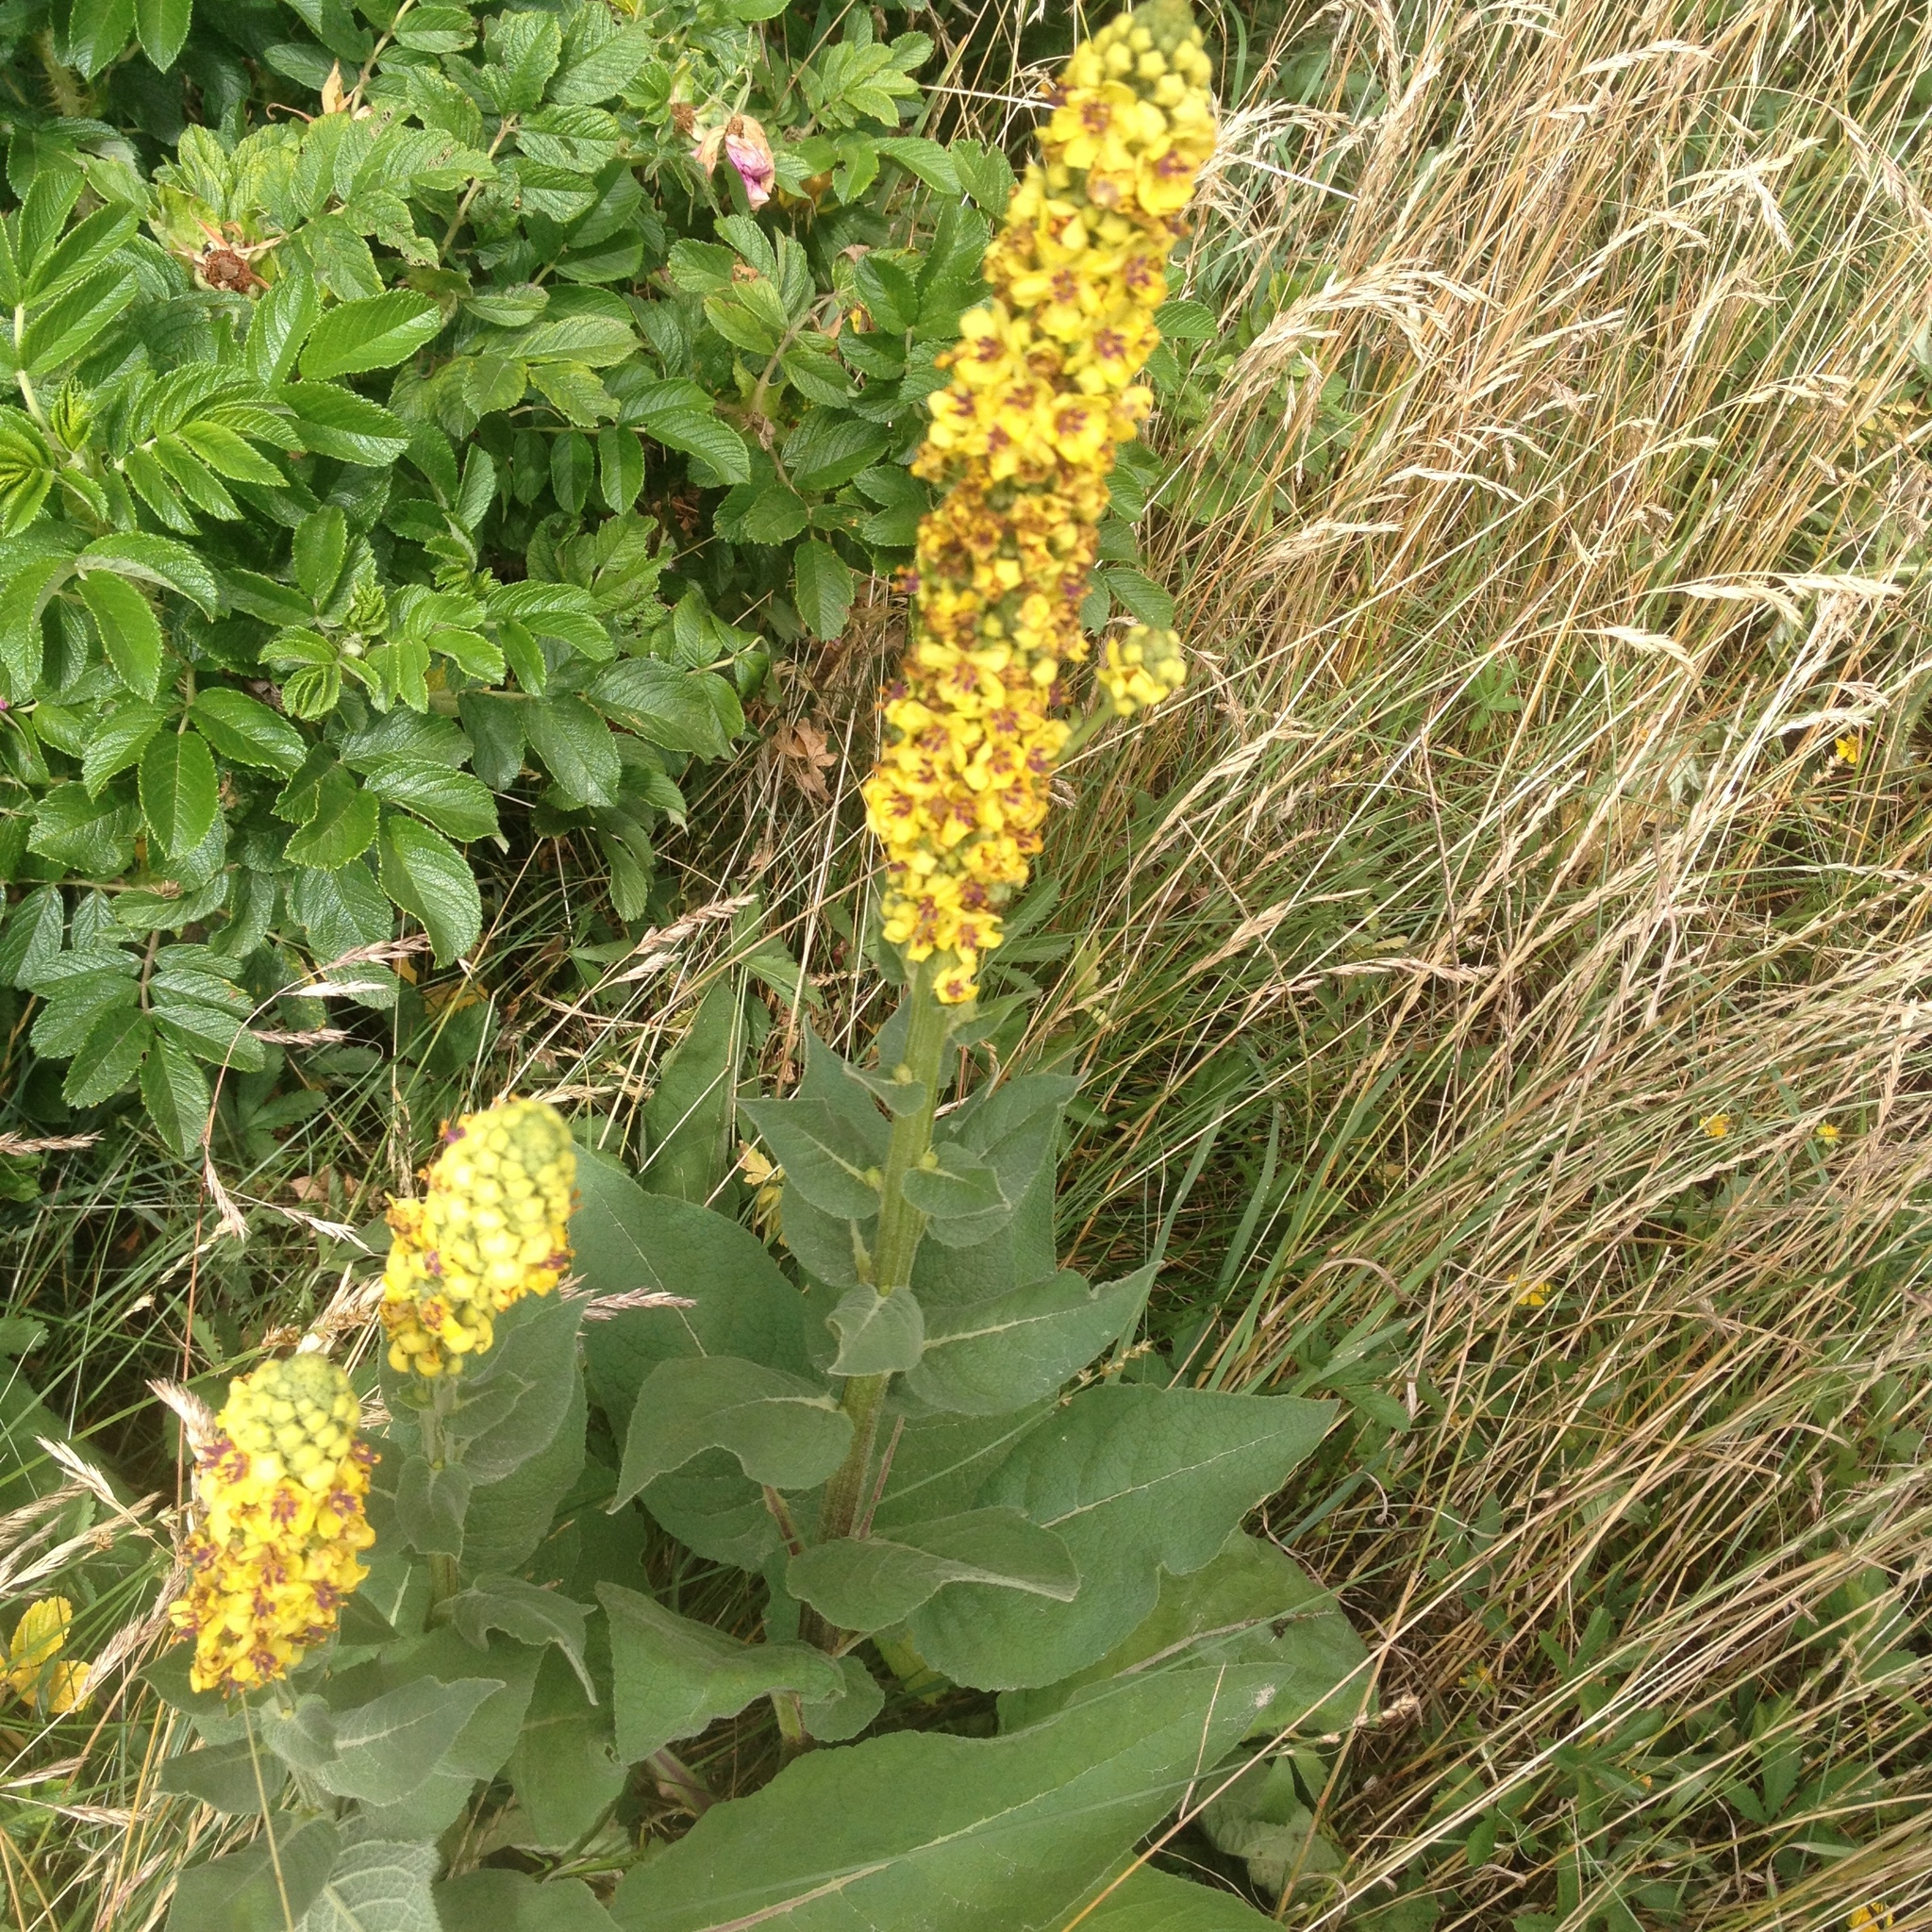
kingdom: Plantae
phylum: Tracheophyta
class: Magnoliopsida
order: Lamiales
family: Scrophulariaceae
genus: Verbascum
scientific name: Verbascum nigrum
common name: Dark mullein
